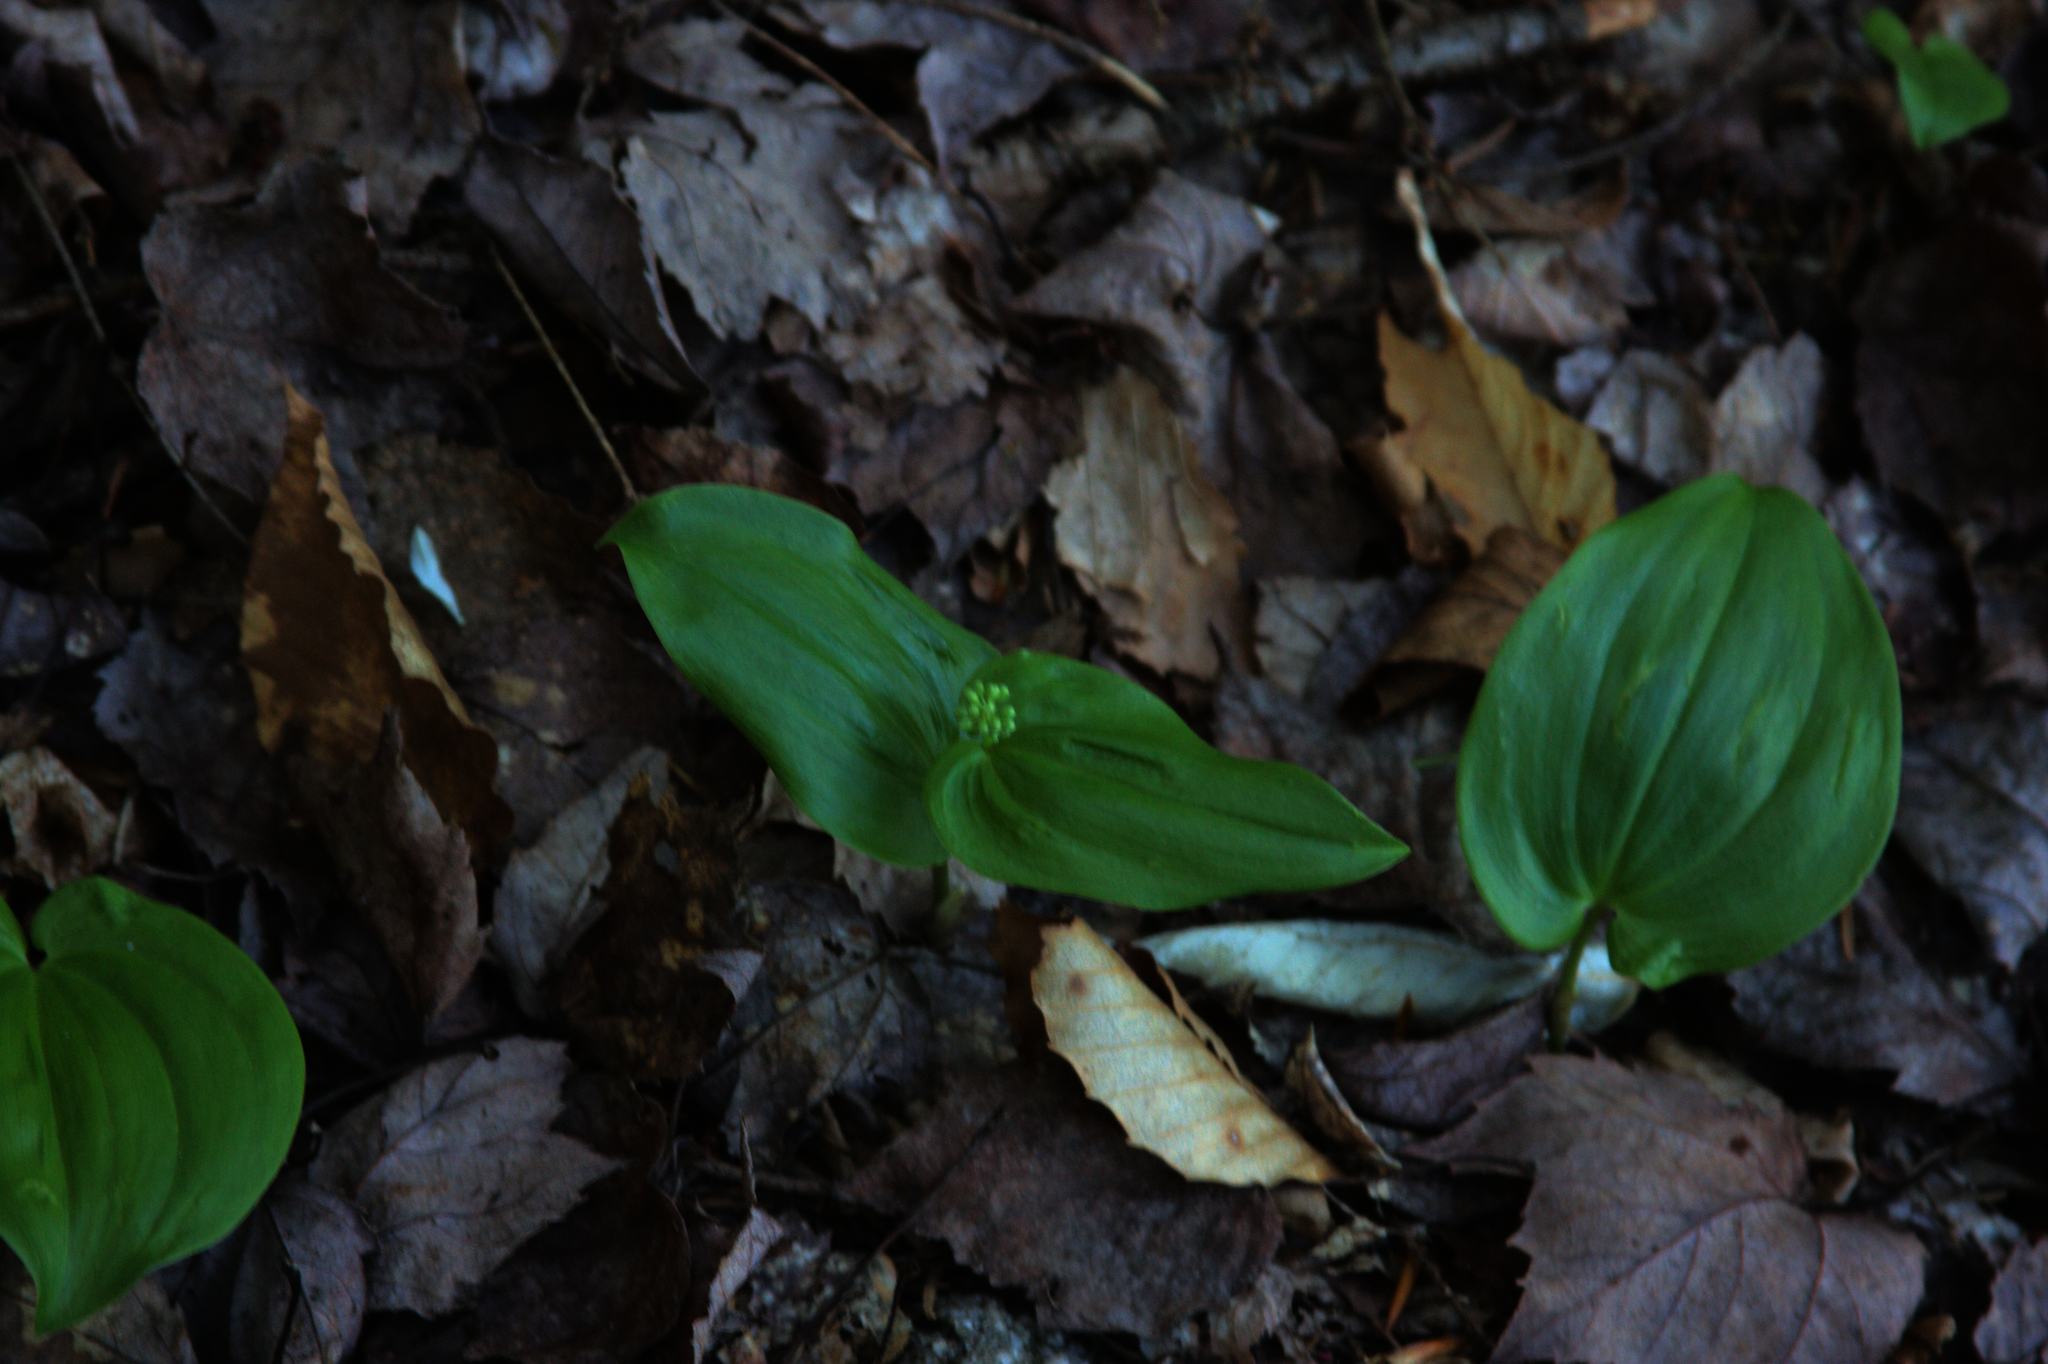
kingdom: Plantae
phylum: Tracheophyta
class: Liliopsida
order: Asparagales
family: Asparagaceae
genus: Maianthemum
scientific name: Maianthemum canadense
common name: False lily-of-the-valley
